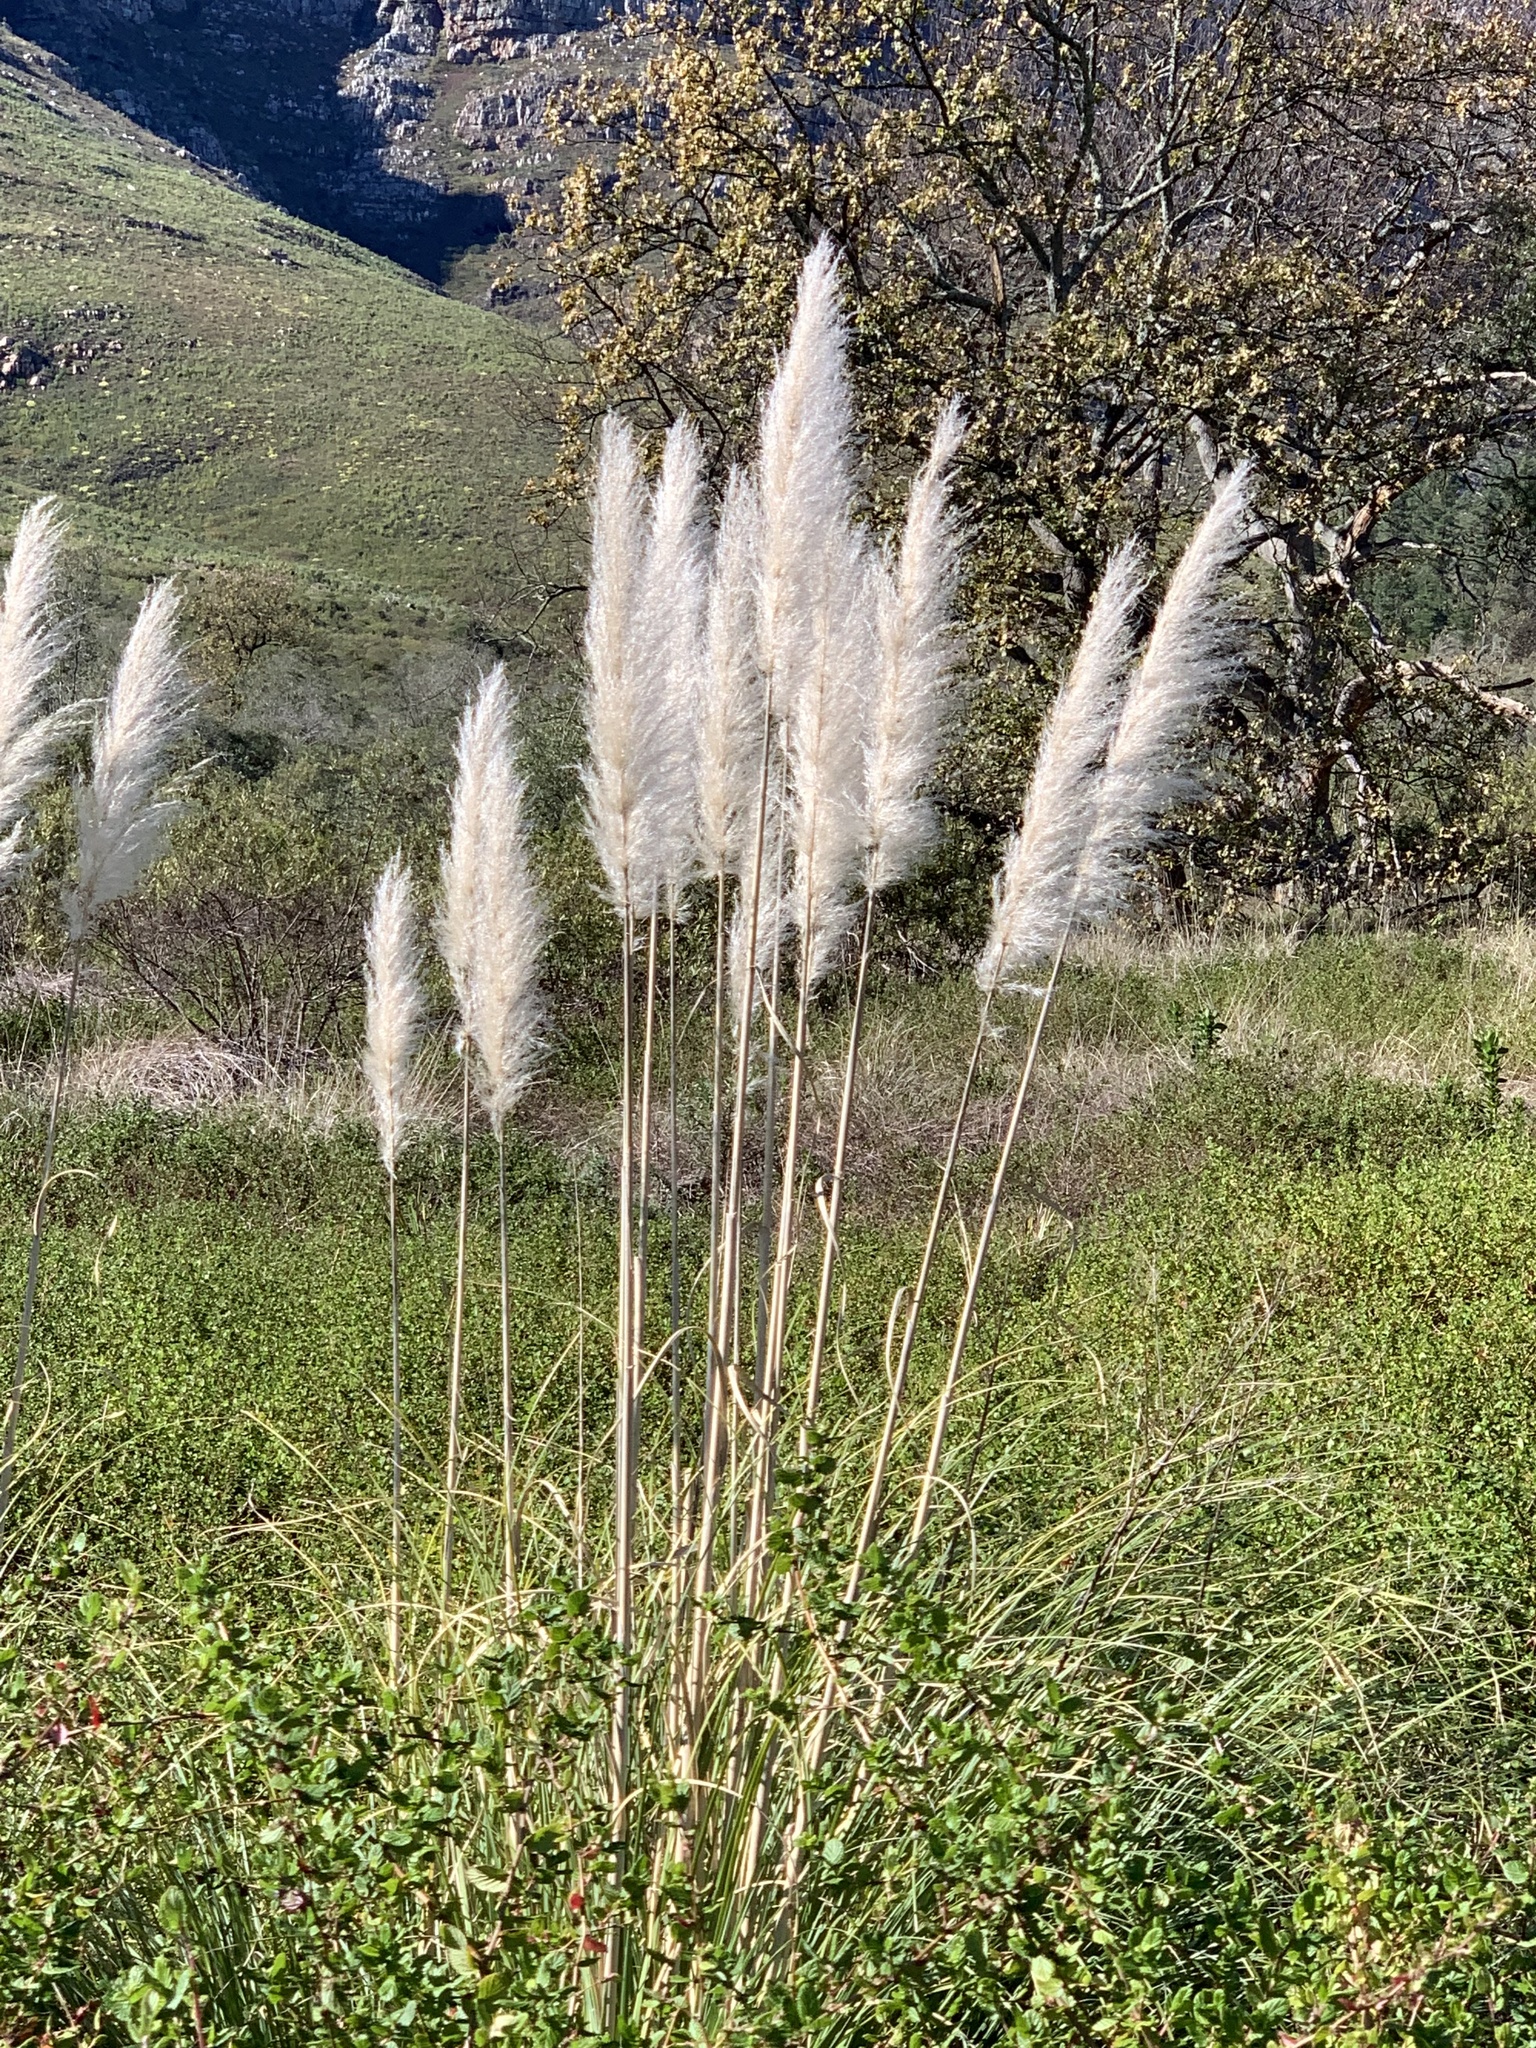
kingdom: Plantae
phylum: Tracheophyta
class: Liliopsida
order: Poales
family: Poaceae
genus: Cortaderia
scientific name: Cortaderia selloana
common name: Uruguayan pampas grass
